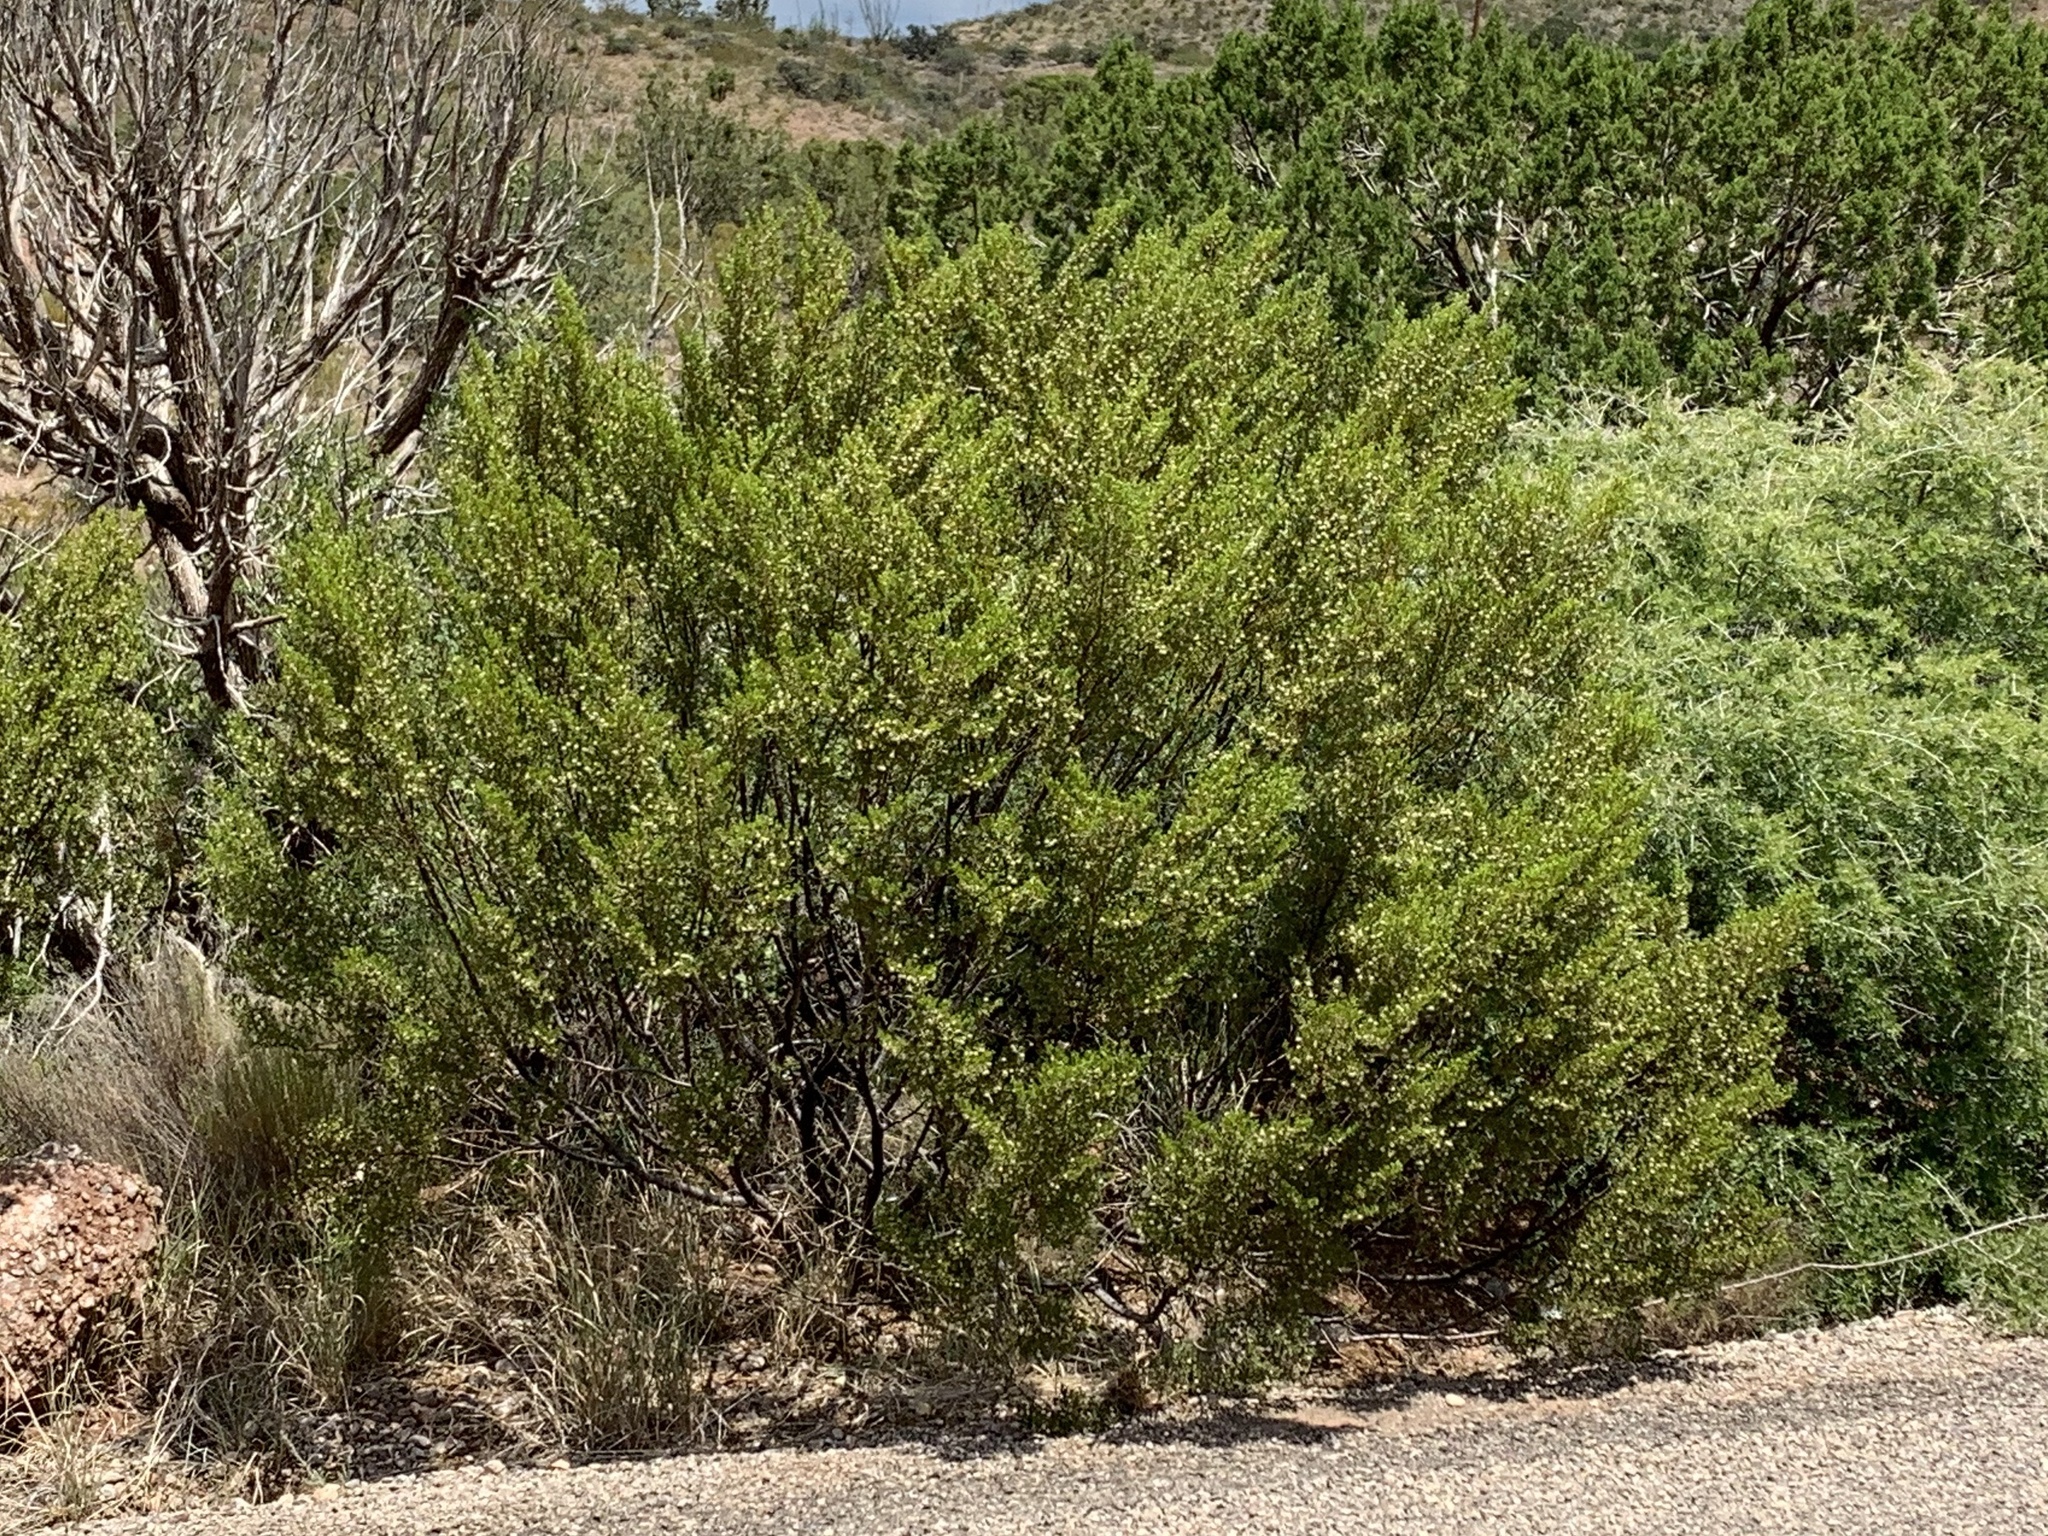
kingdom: Plantae
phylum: Tracheophyta
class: Magnoliopsida
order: Zygophyllales
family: Zygophyllaceae
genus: Larrea
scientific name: Larrea tridentata
